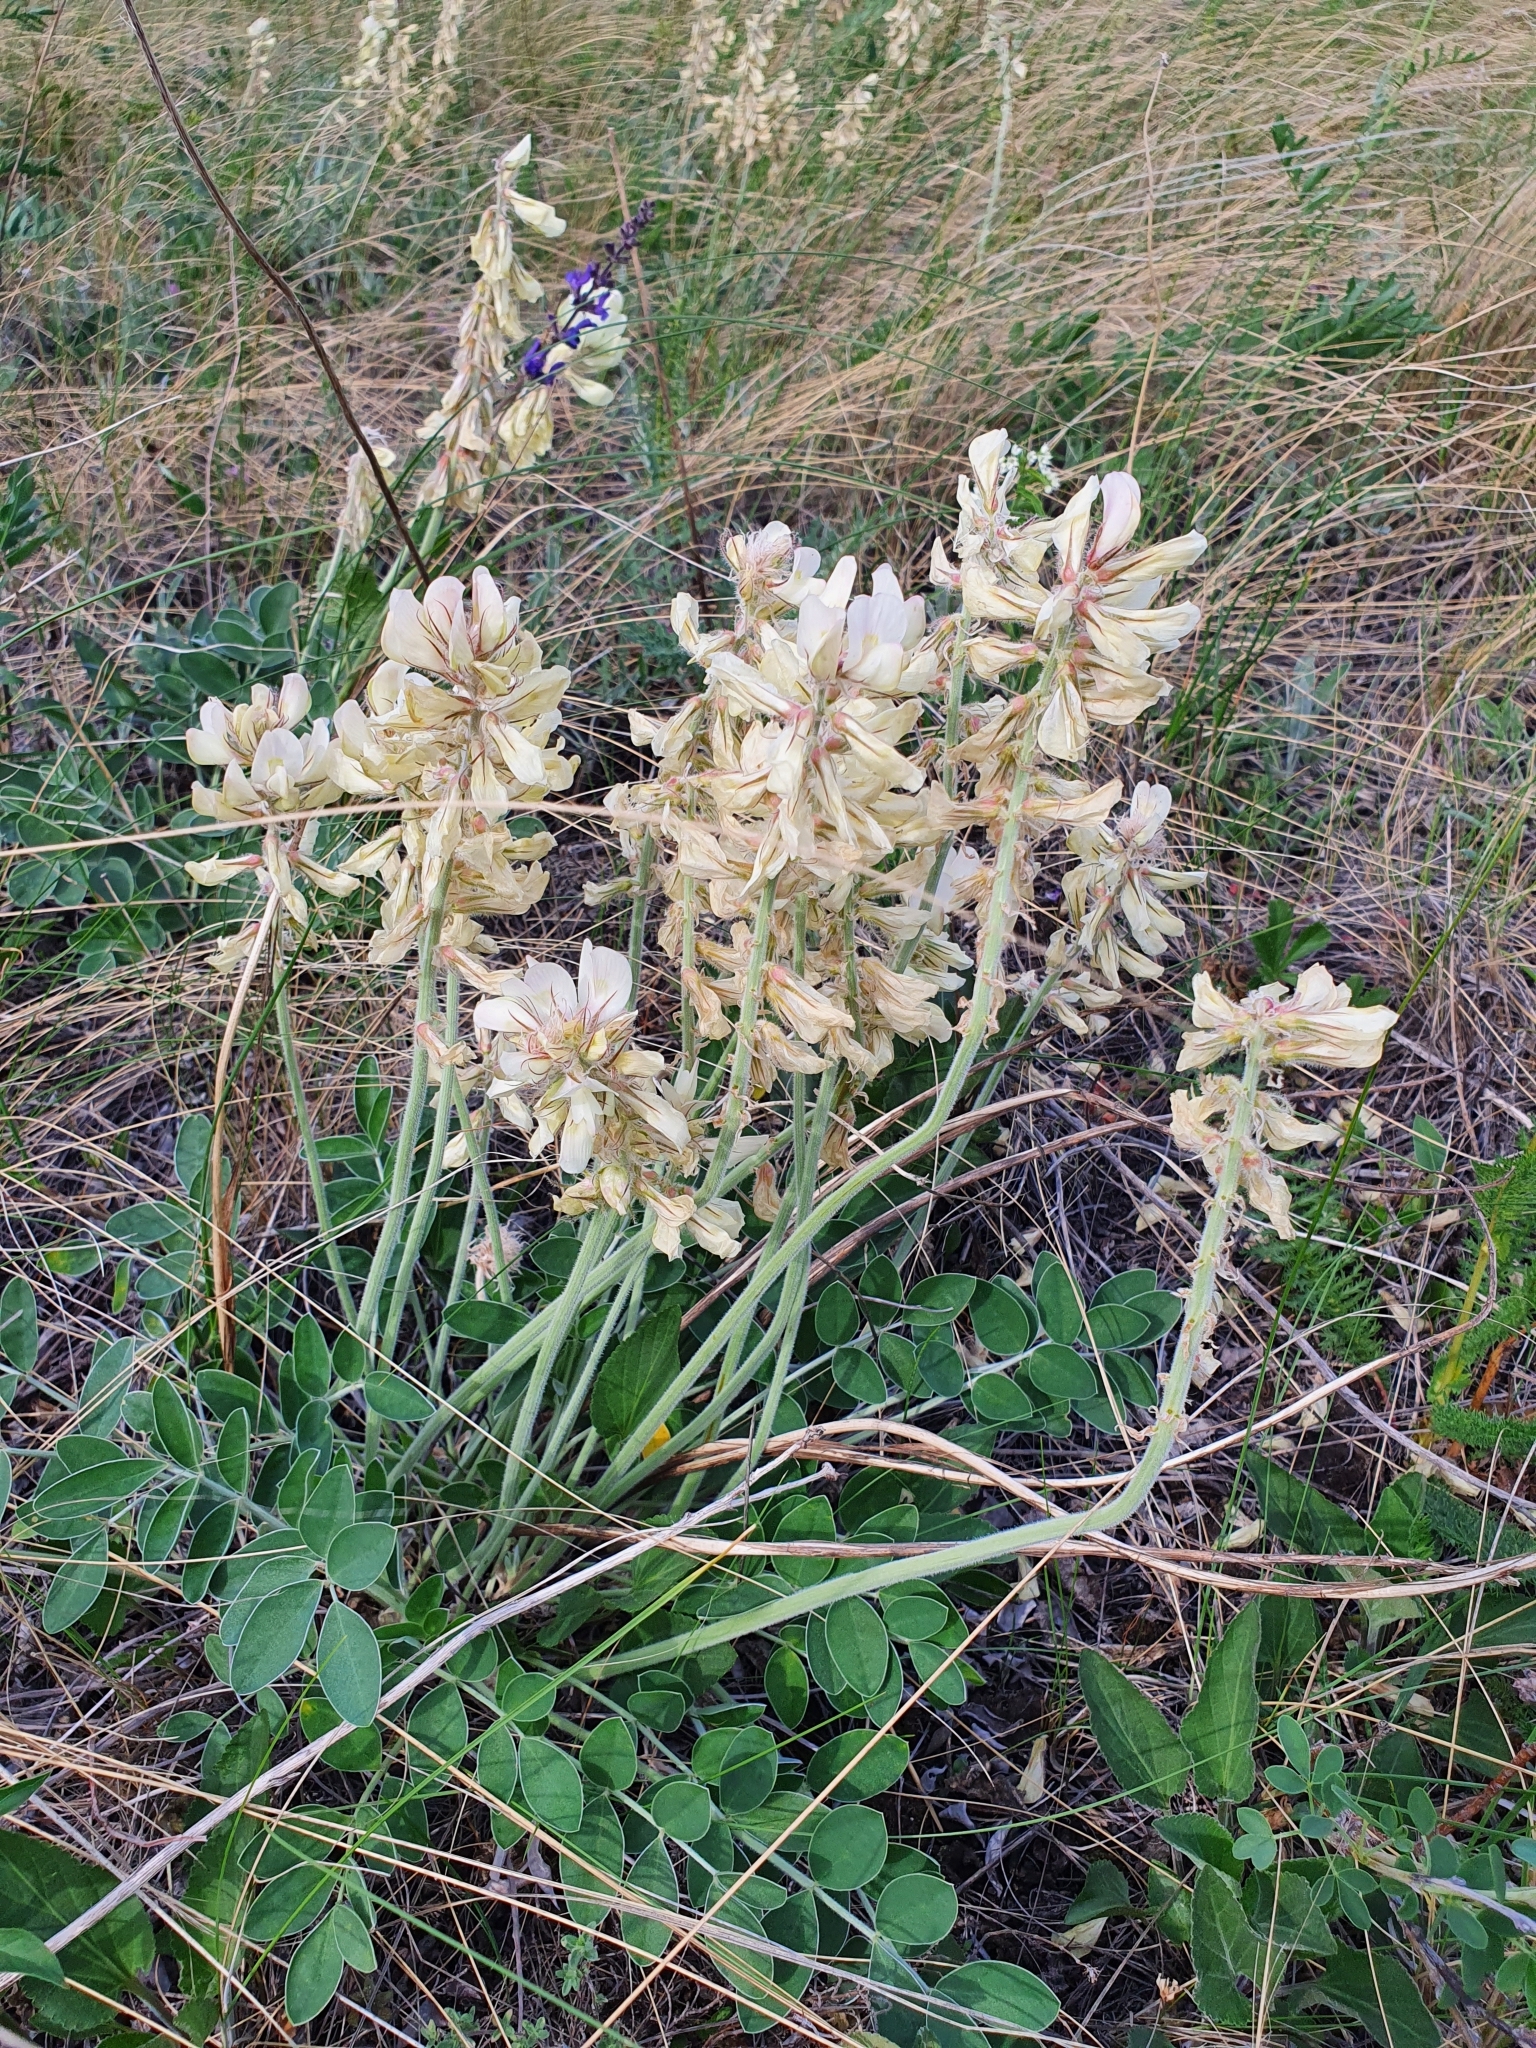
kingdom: Plantae
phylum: Tracheophyta
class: Magnoliopsida
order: Fabales
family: Fabaceae
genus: Hedysarum
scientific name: Hedysarum grandiflorum
